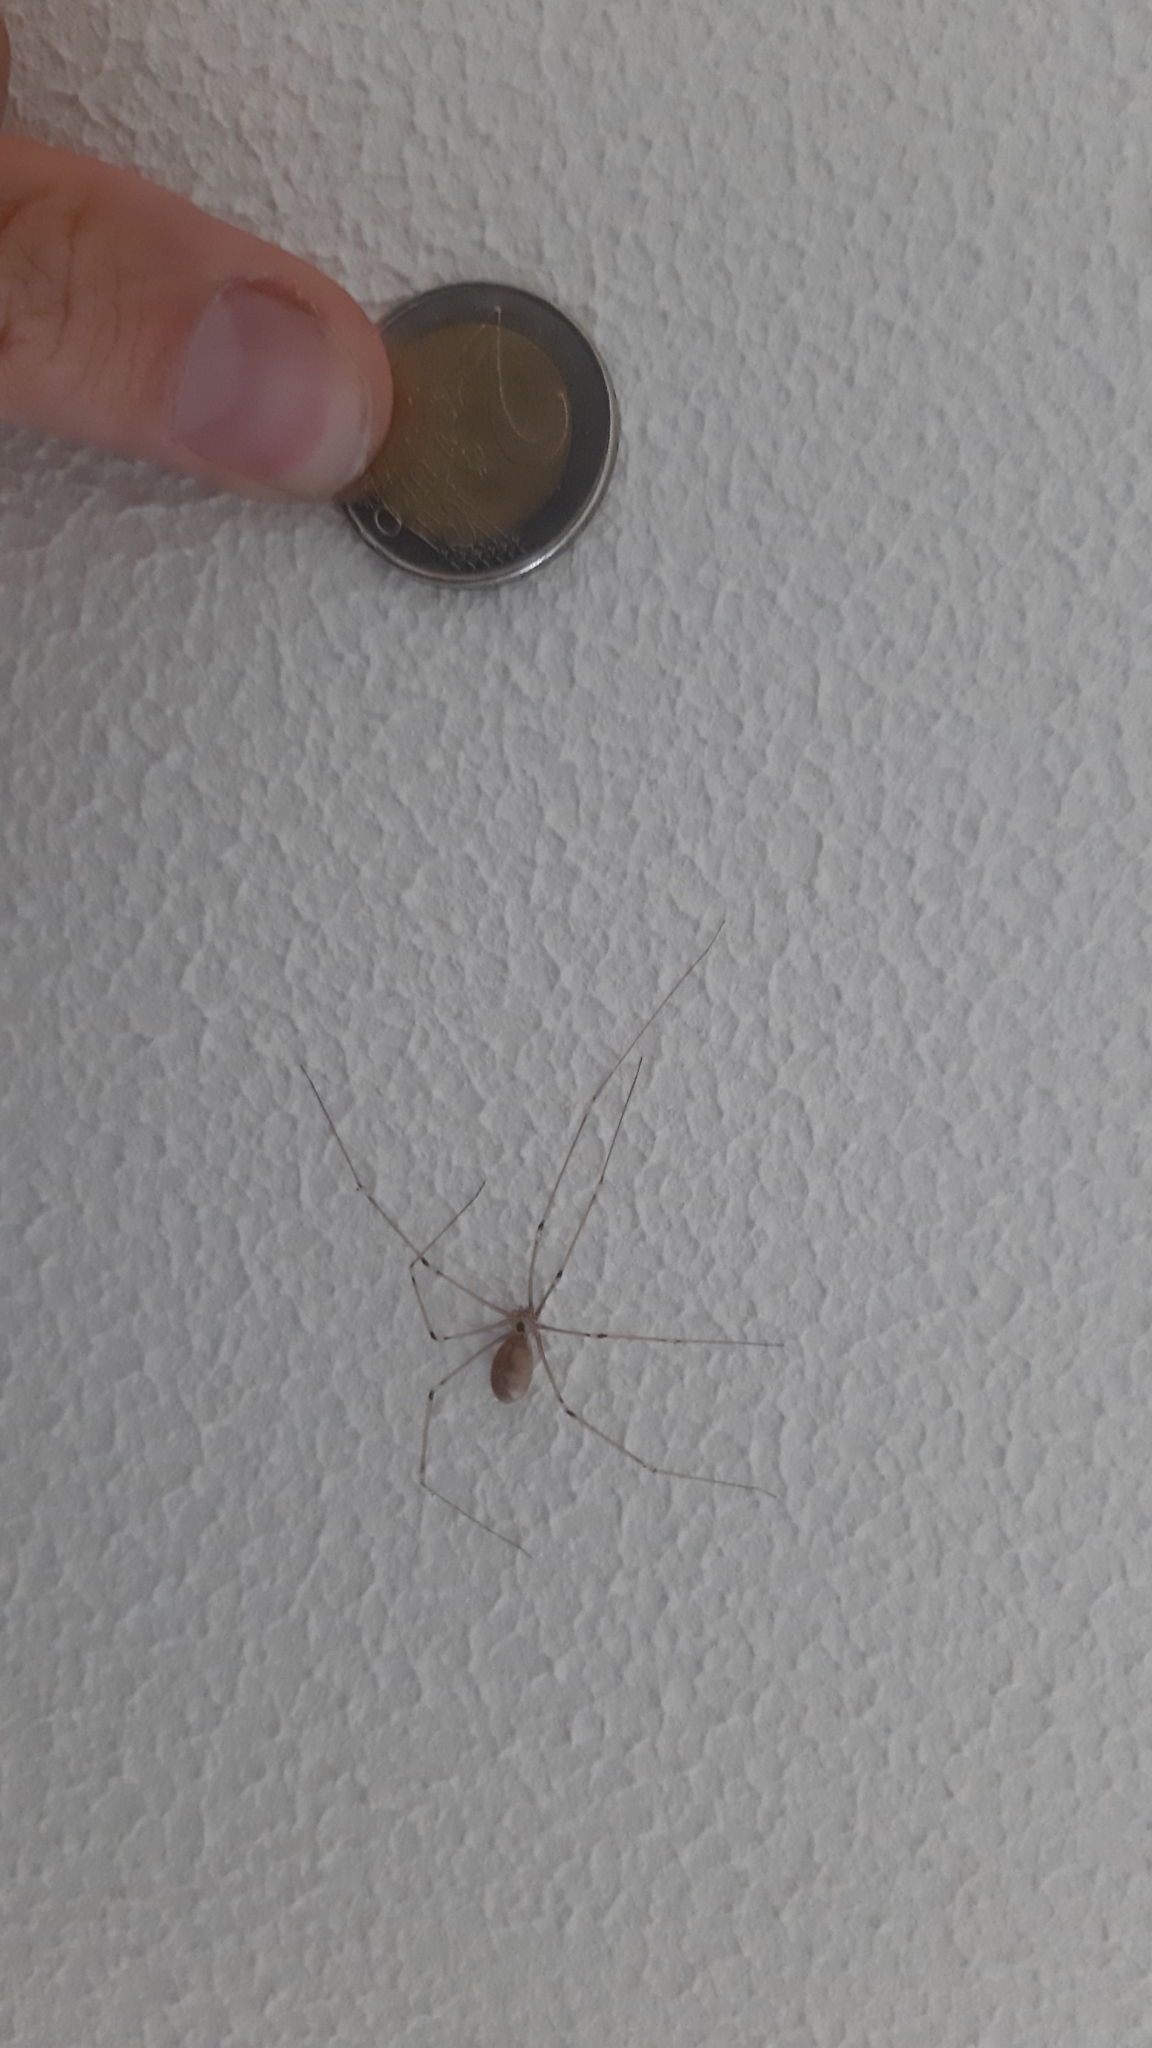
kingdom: Animalia
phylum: Arthropoda
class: Arachnida
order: Araneae
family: Pholcidae
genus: Pholcus
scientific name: Pholcus phalangioides
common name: Longbodied cellar spider
